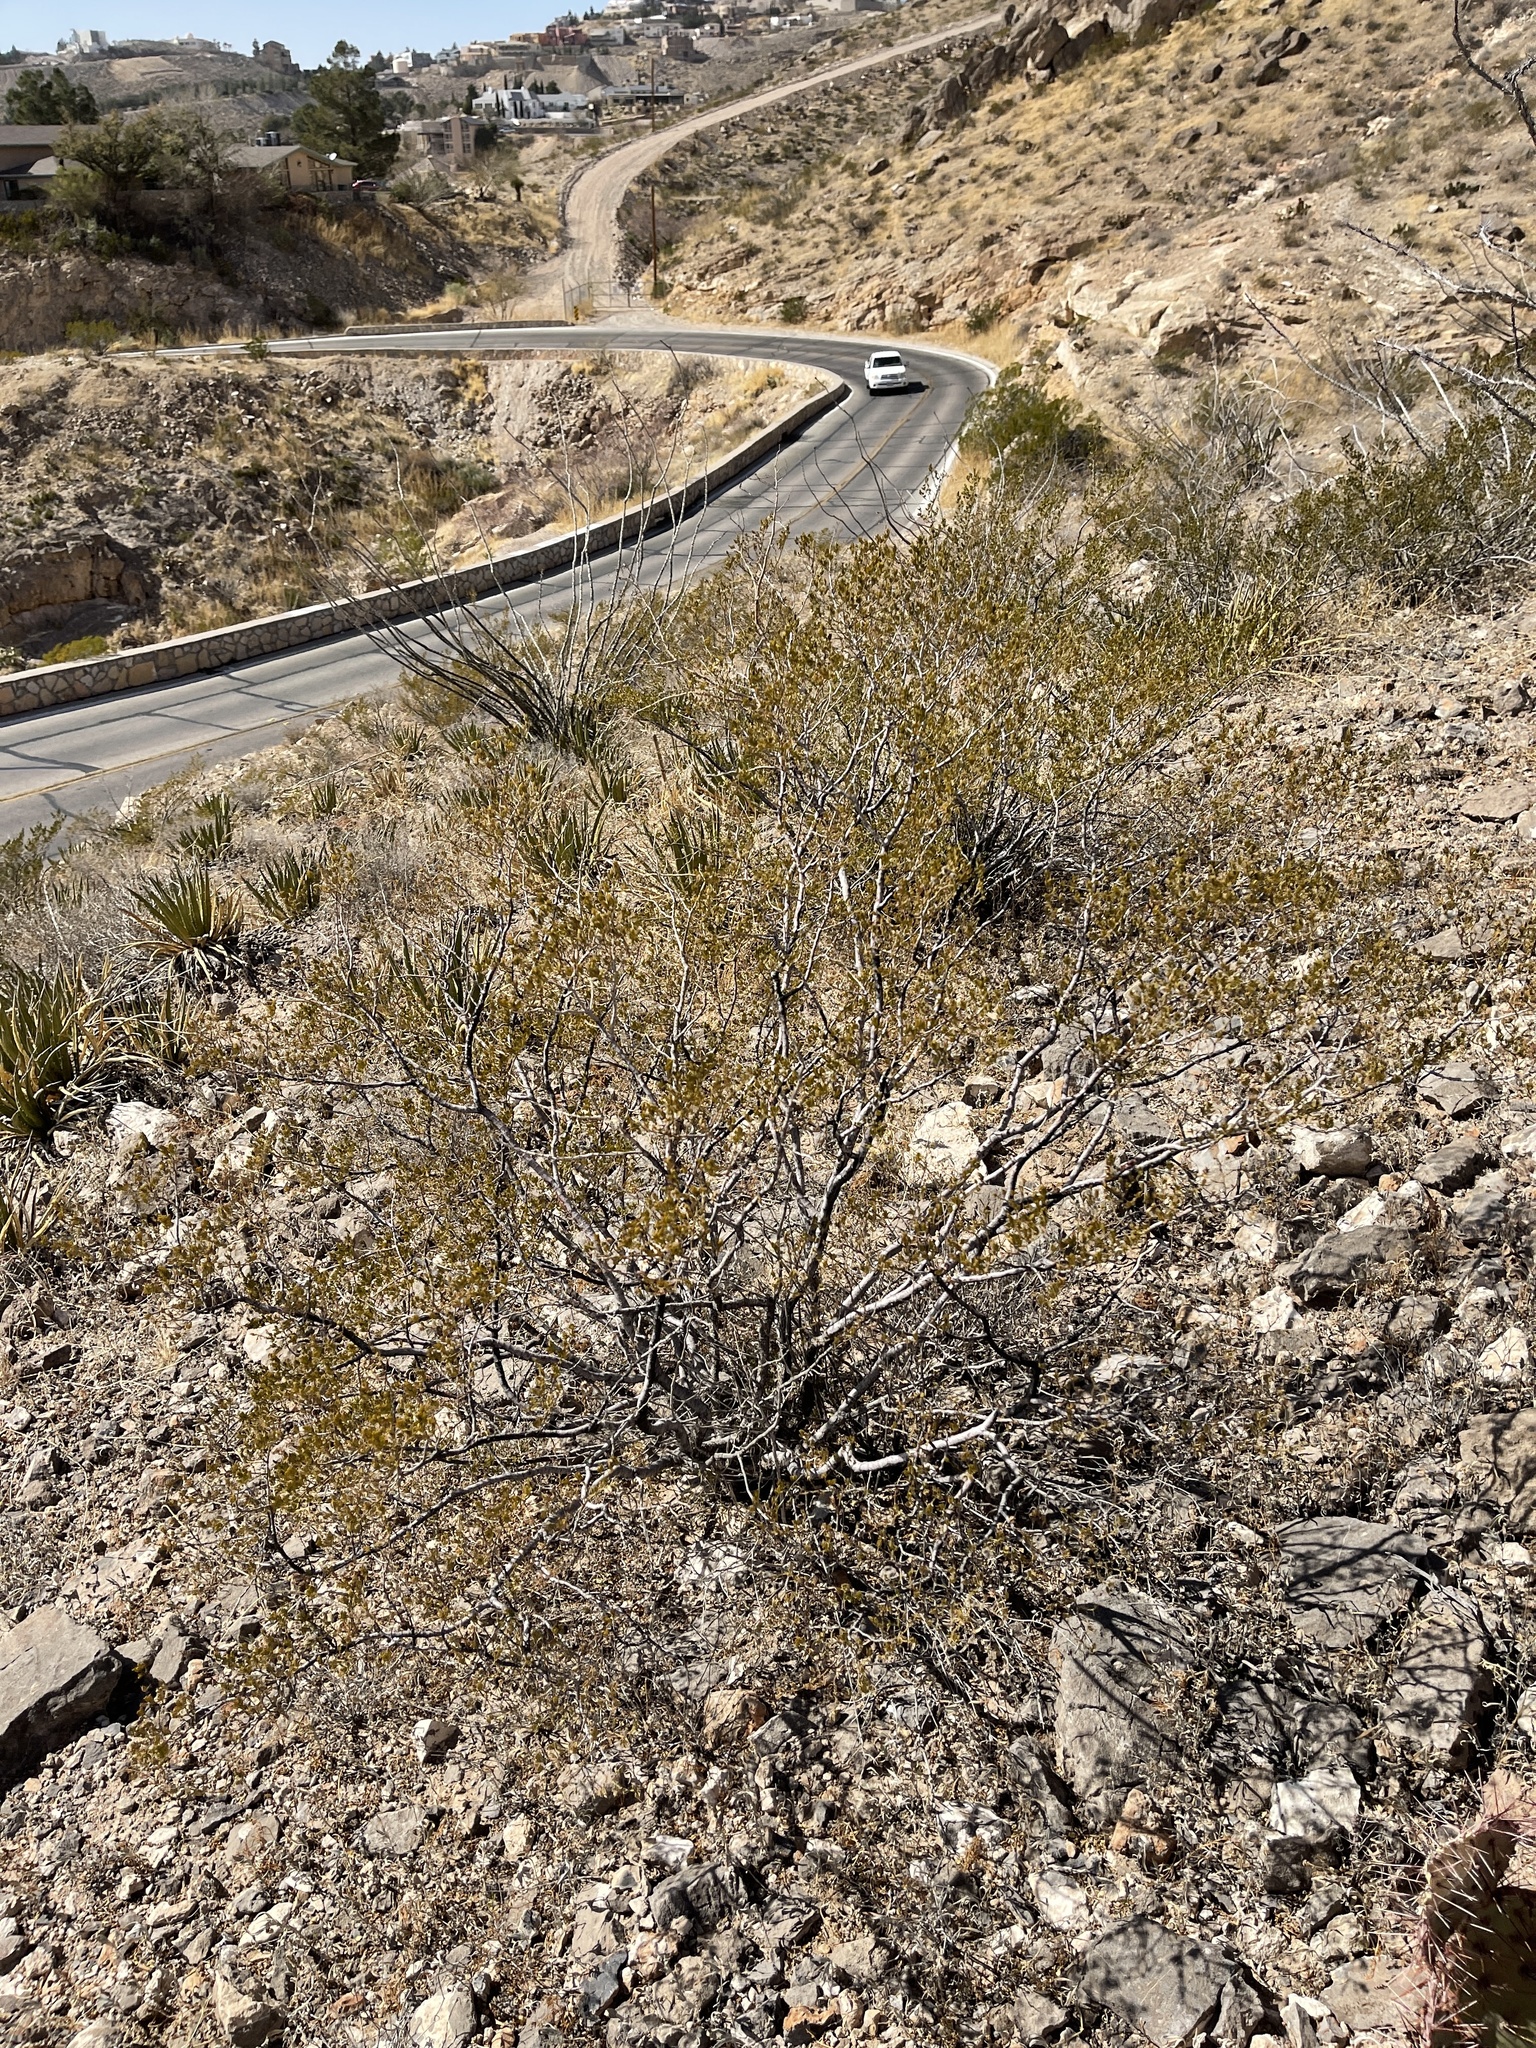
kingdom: Plantae
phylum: Tracheophyta
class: Magnoliopsida
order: Zygophyllales
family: Zygophyllaceae
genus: Larrea
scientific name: Larrea tridentata
